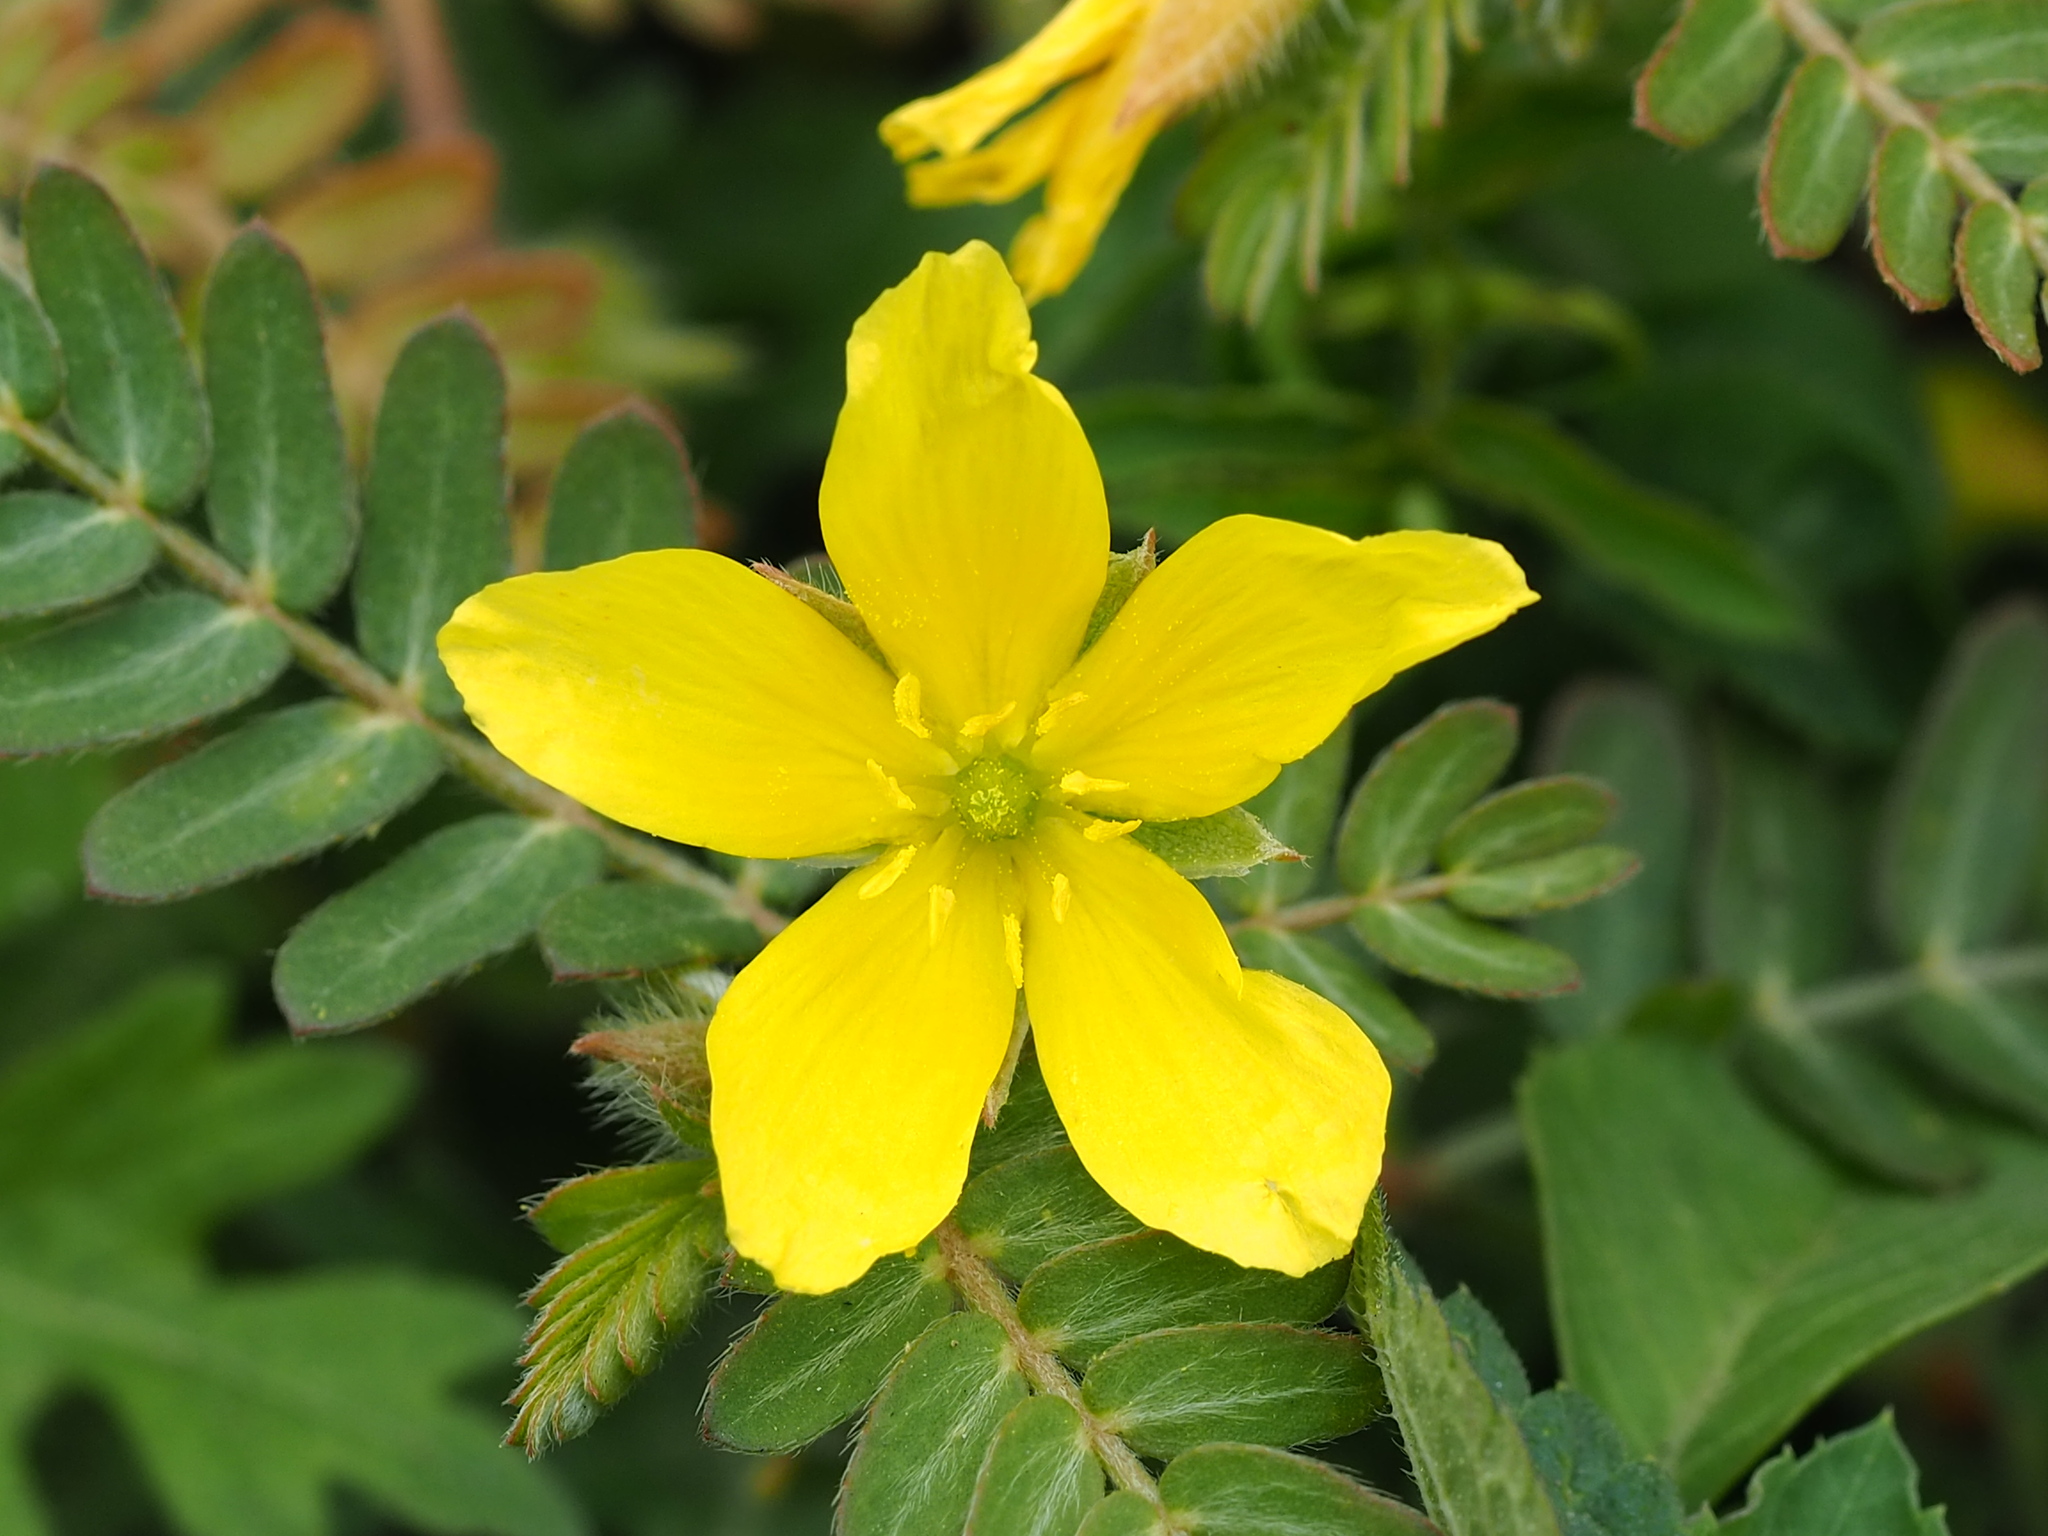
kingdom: Plantae
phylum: Tracheophyta
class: Magnoliopsida
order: Zygophyllales
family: Zygophyllaceae
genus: Tribulus
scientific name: Tribulus cistoides
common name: Jamaican feverplant
